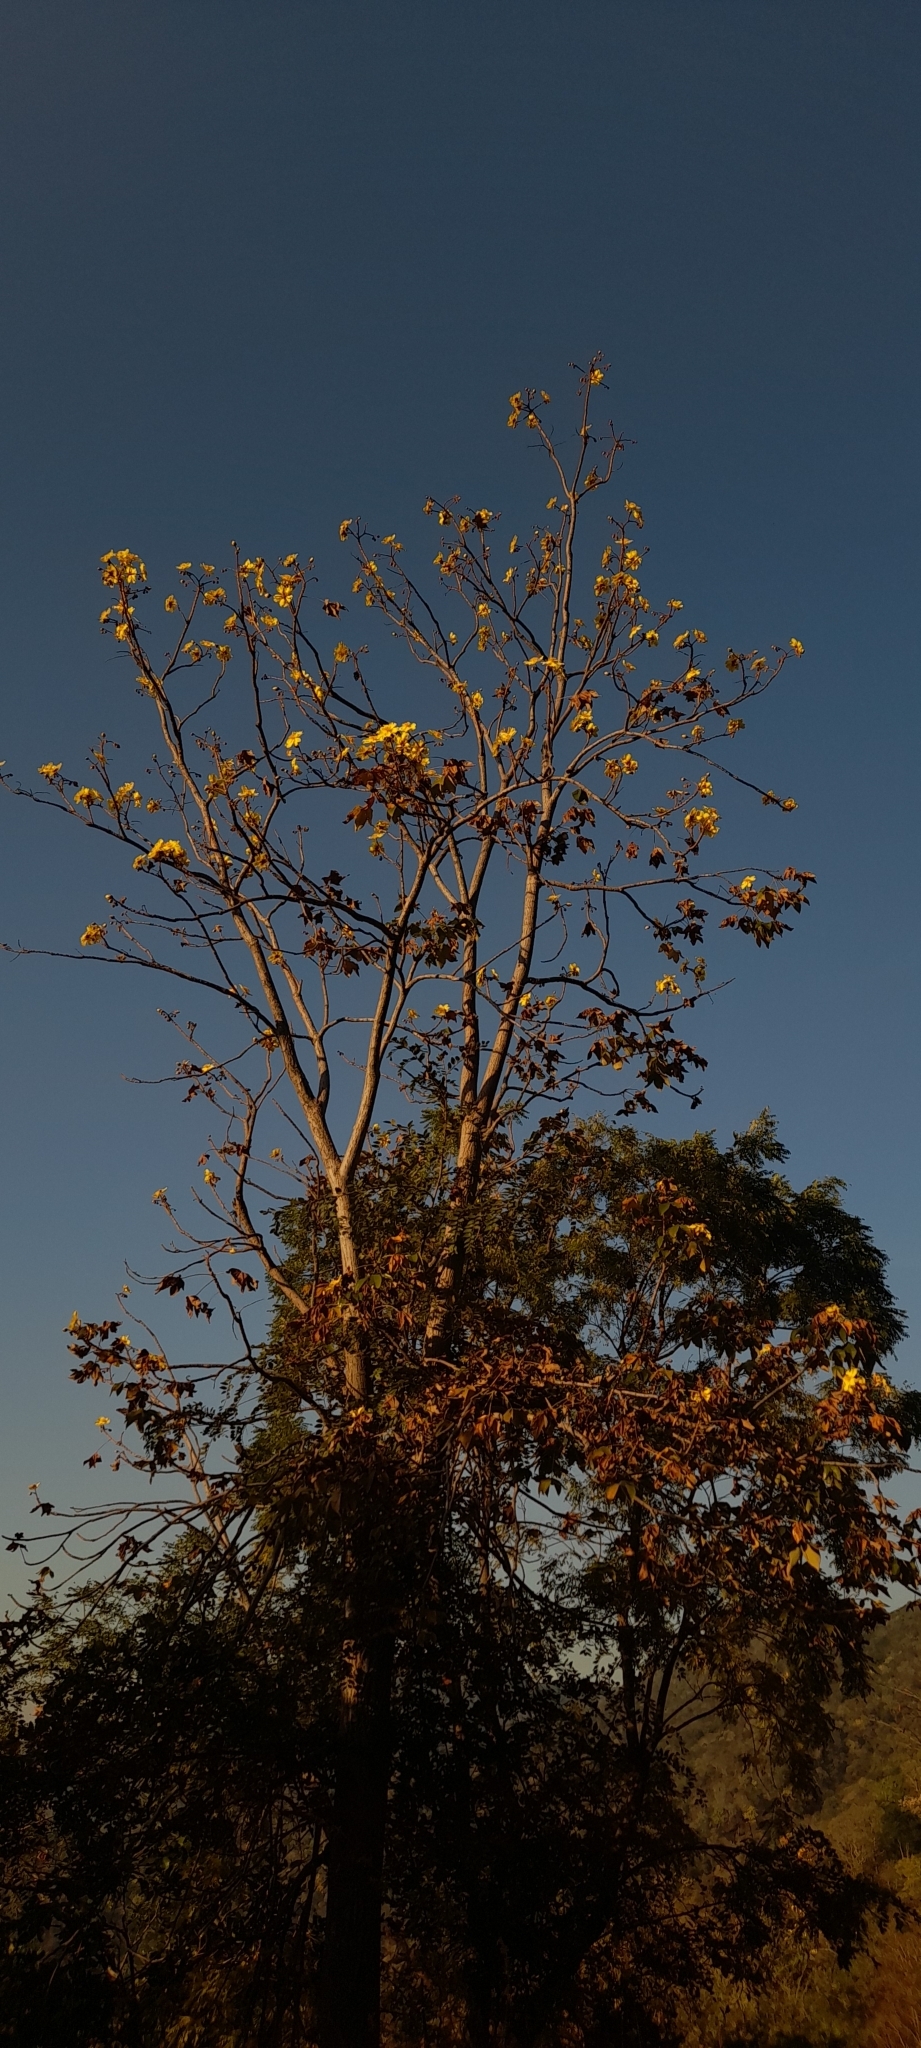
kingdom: Plantae
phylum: Tracheophyta
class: Magnoliopsida
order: Malvales
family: Cochlospermaceae
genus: Cochlospermum
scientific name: Cochlospermum vitifolium
